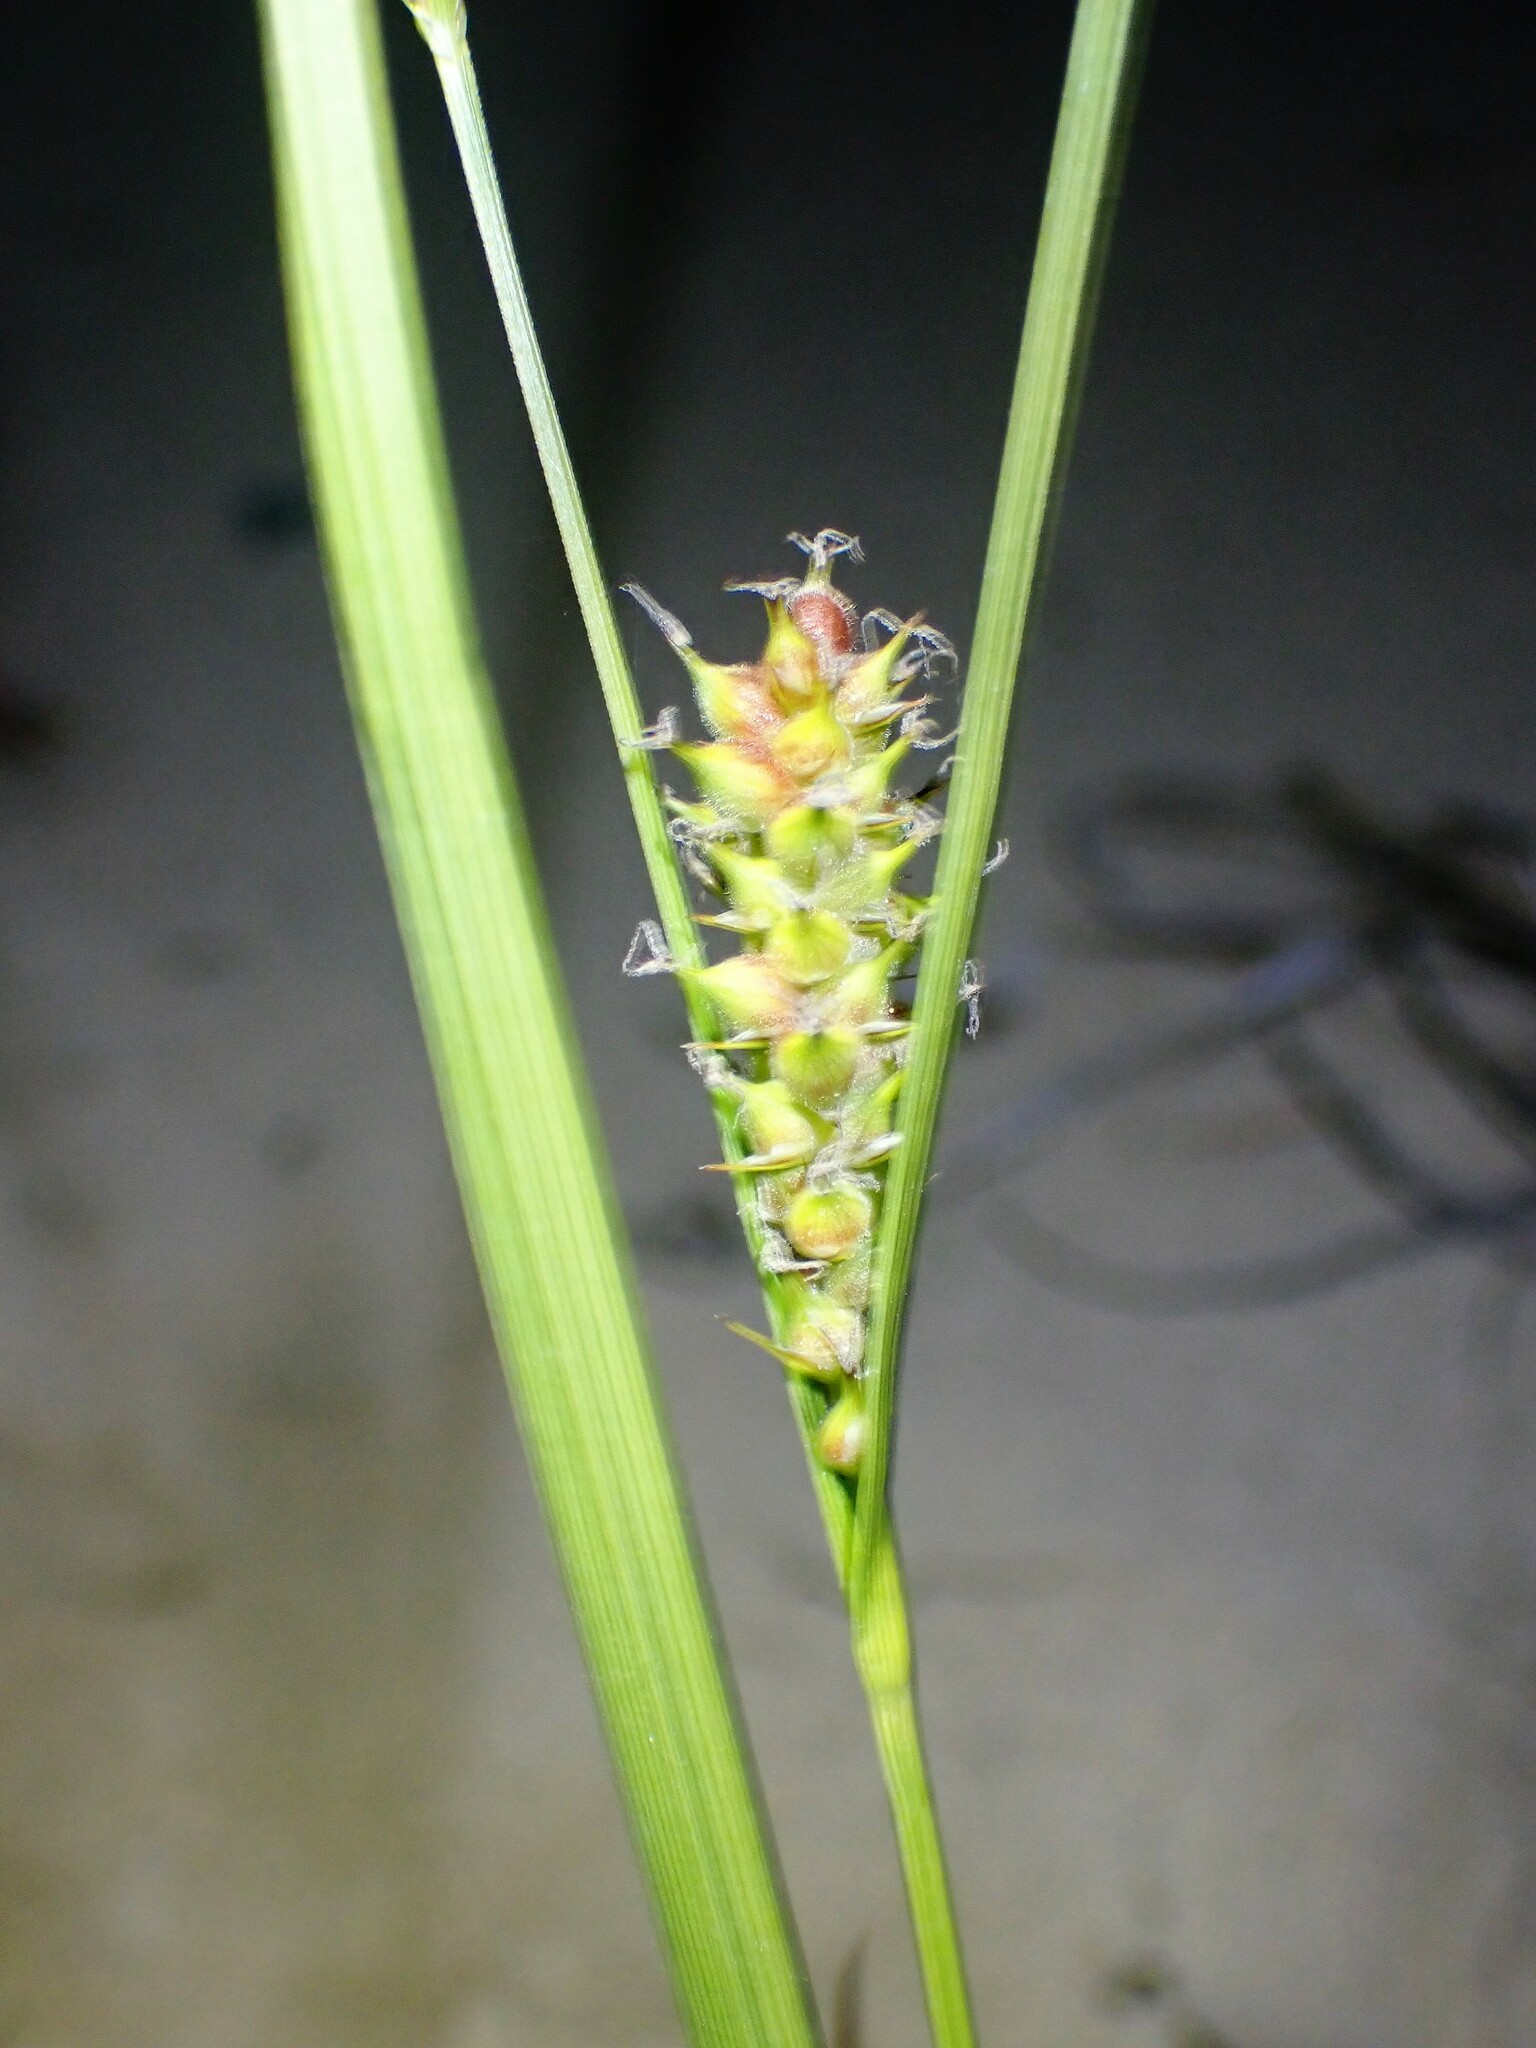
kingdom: Plantae
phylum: Tracheophyta
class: Liliopsida
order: Poales
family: Cyperaceae
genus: Carex
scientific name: Carex houghtoniana
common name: Houghton's sedge
